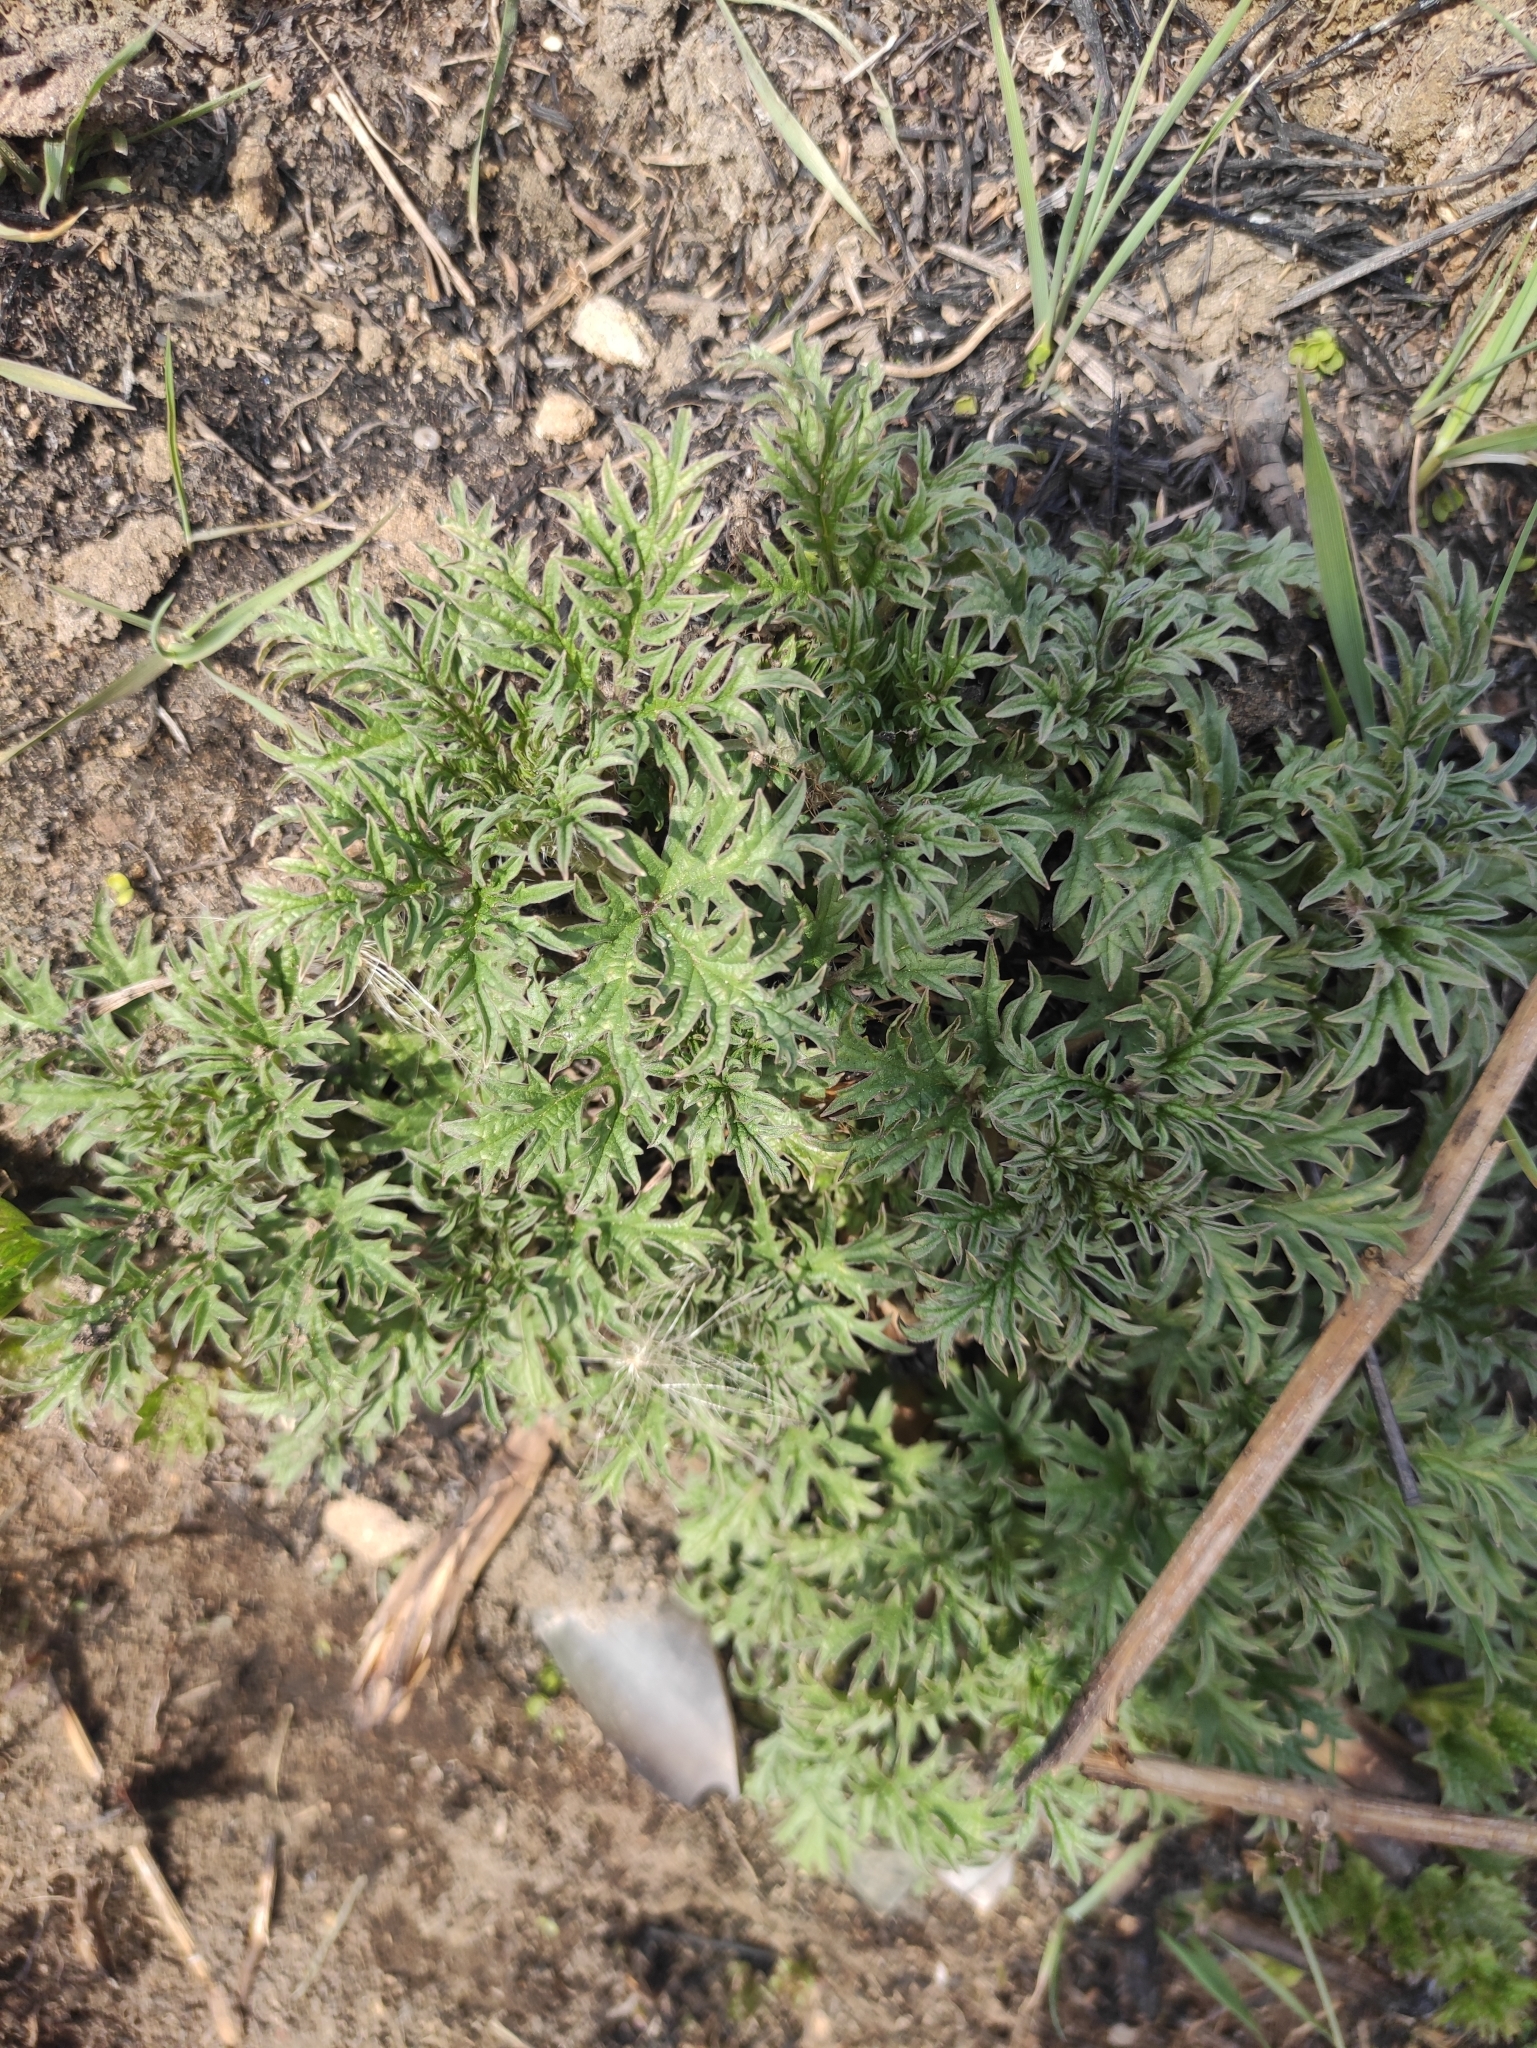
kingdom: Plantae
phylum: Tracheophyta
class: Magnoliopsida
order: Rosales
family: Urticaceae
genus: Urtica
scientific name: Urtica cannabina
